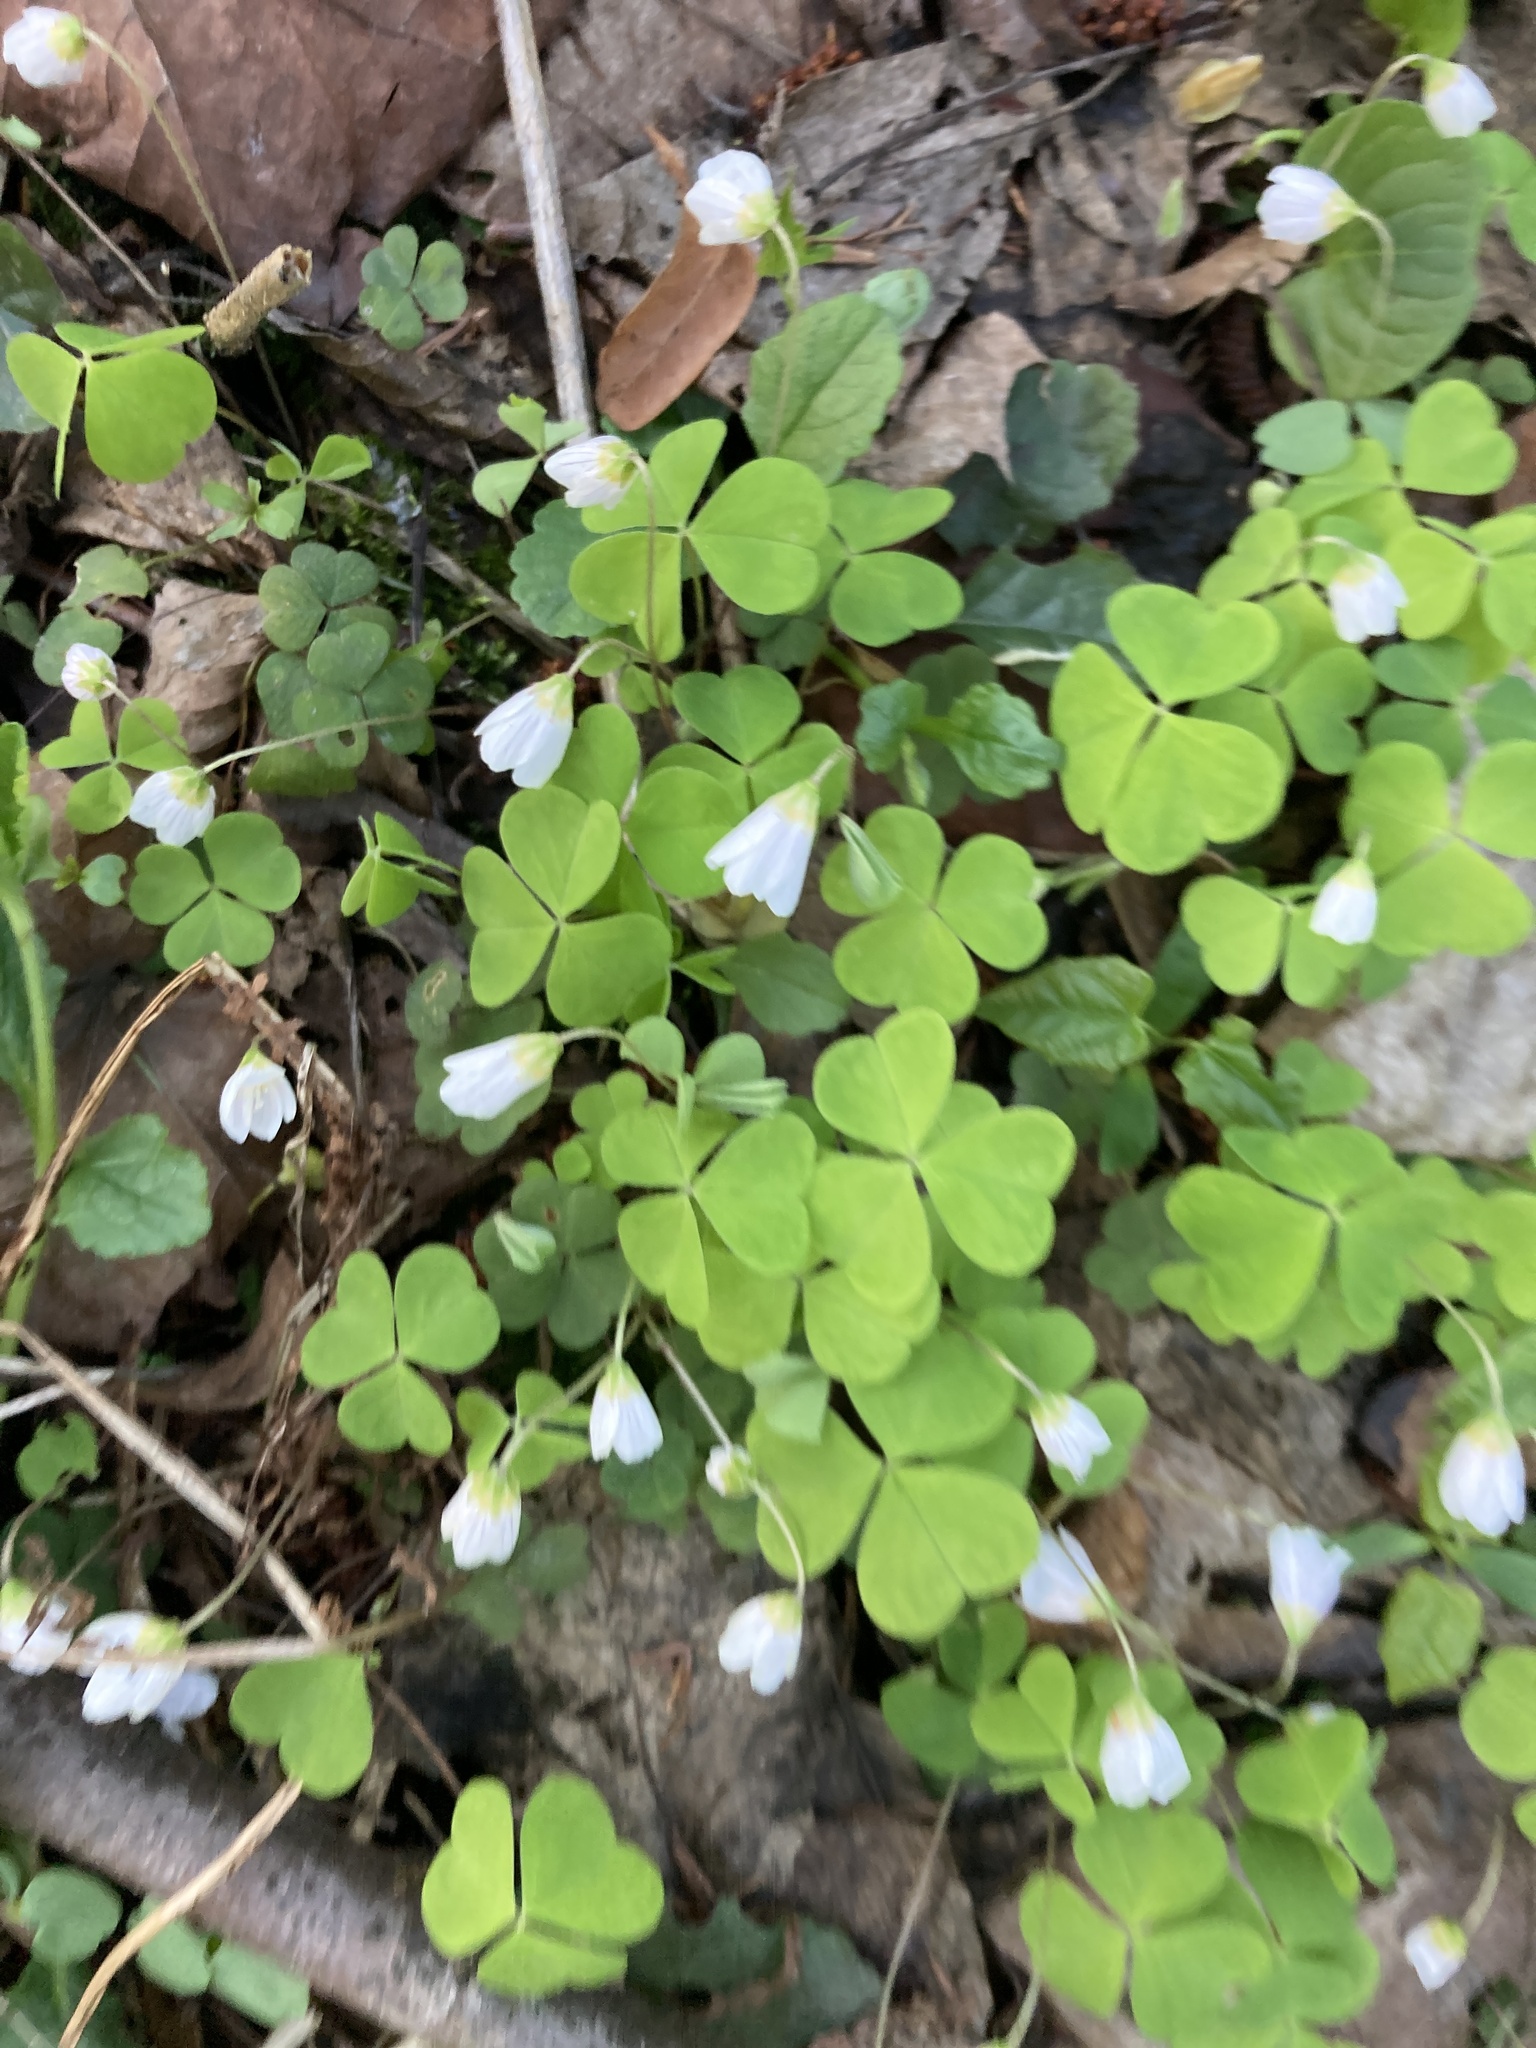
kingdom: Plantae
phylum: Tracheophyta
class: Magnoliopsida
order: Oxalidales
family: Oxalidaceae
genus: Oxalis
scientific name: Oxalis acetosella
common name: Wood-sorrel
